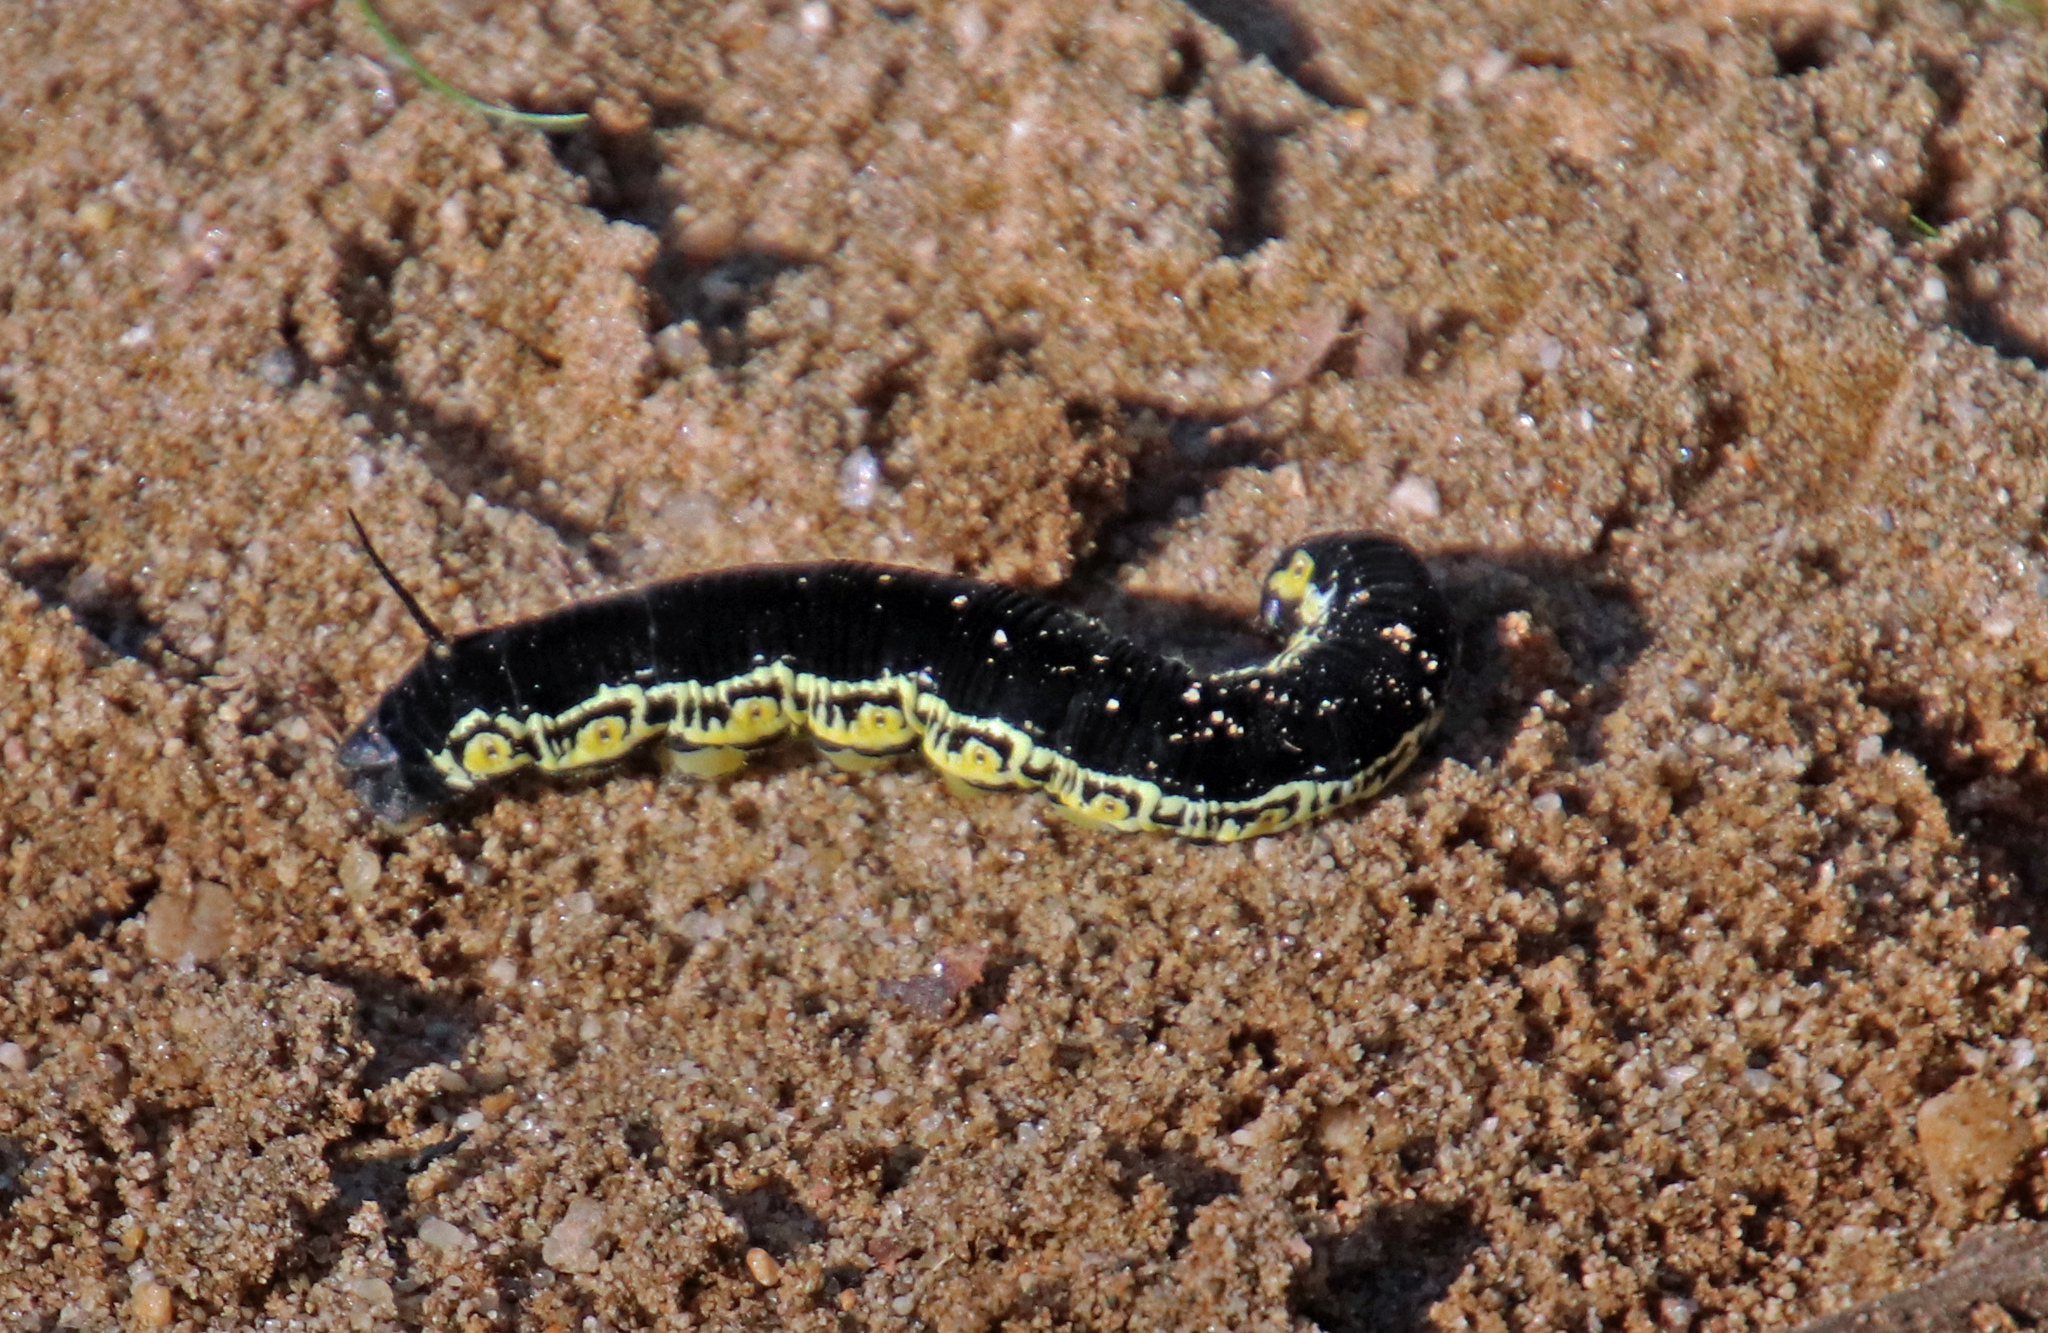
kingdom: Animalia
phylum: Arthropoda
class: Insecta
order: Lepidoptera
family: Sphingidae
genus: Ceratomia
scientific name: Ceratomia catalpae
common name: Catalpa hornworm
